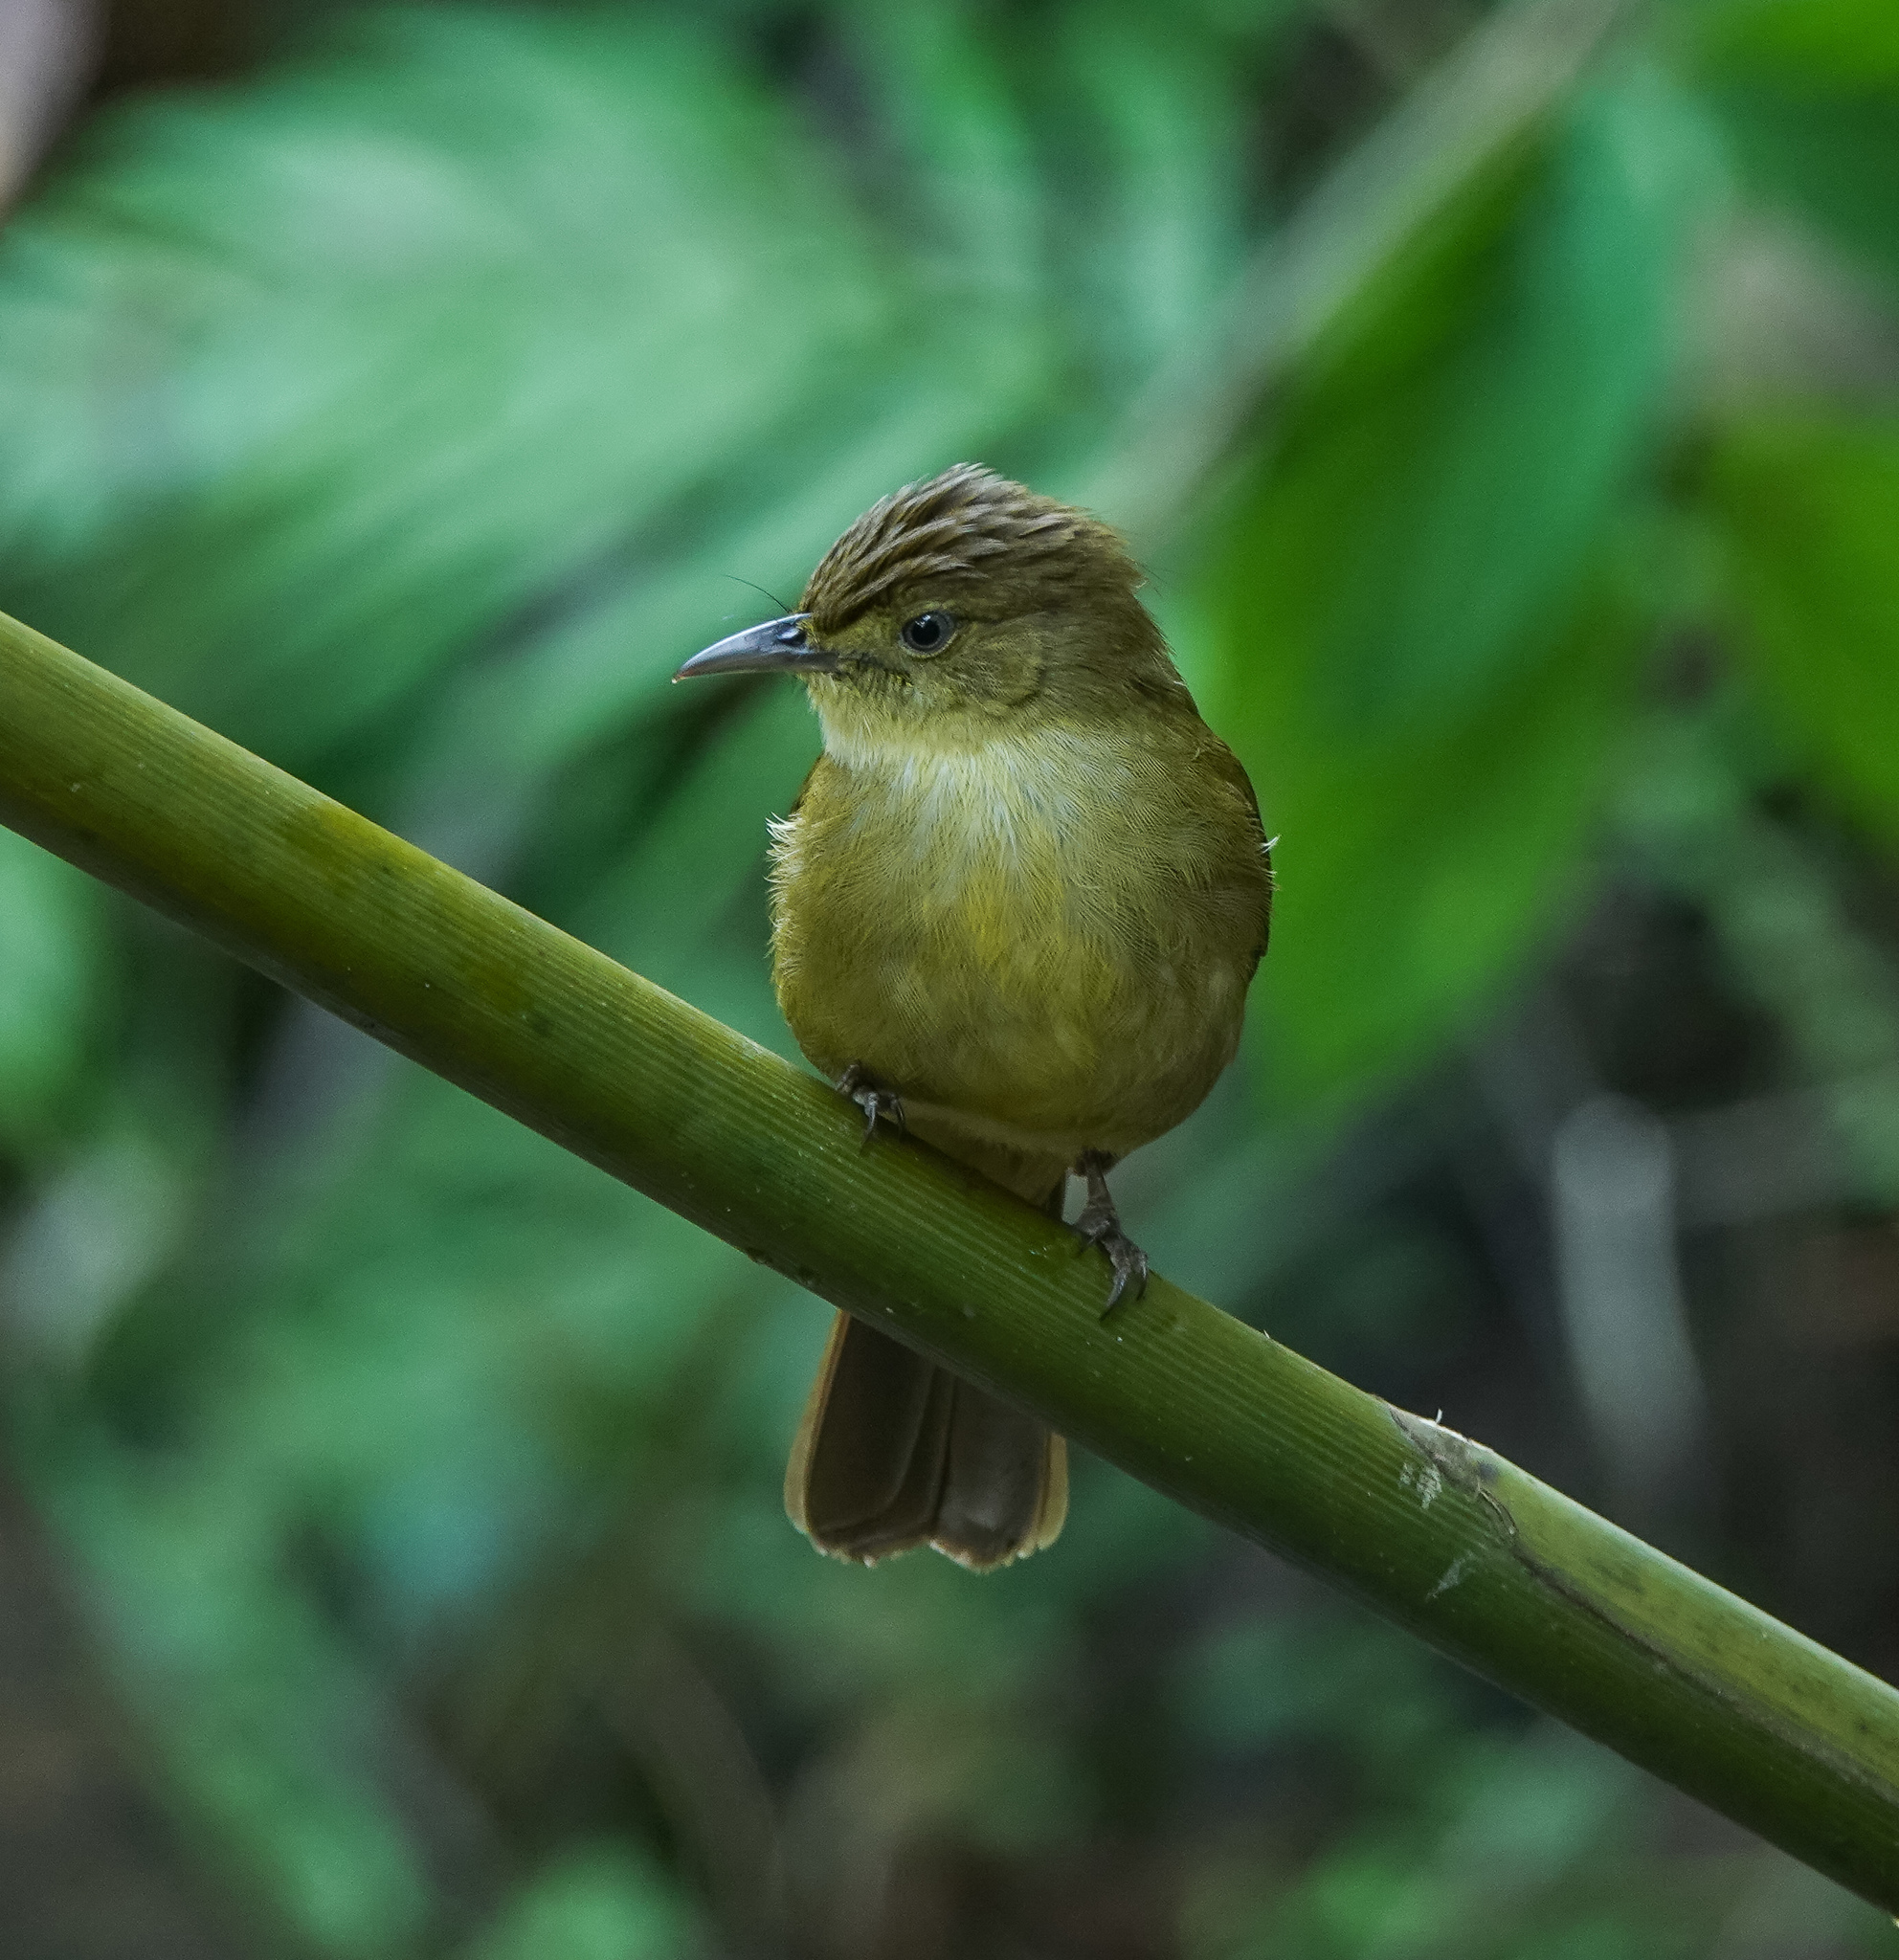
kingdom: Animalia
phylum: Chordata
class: Aves
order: Passeriformes
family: Pycnonotidae
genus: Iole
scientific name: Iole virescens
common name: Olive bulbul
